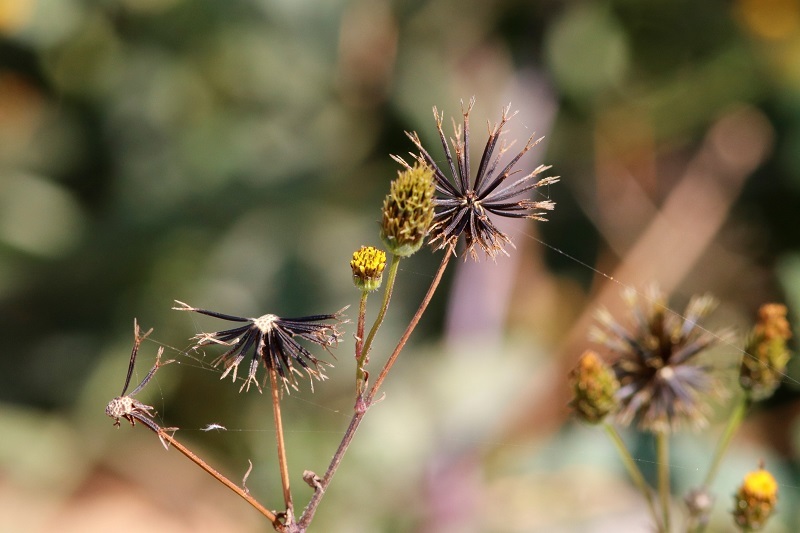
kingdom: Plantae
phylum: Tracheophyta
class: Magnoliopsida
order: Asterales
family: Asteraceae
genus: Bidens
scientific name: Bidens pilosa
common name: Black-jack
